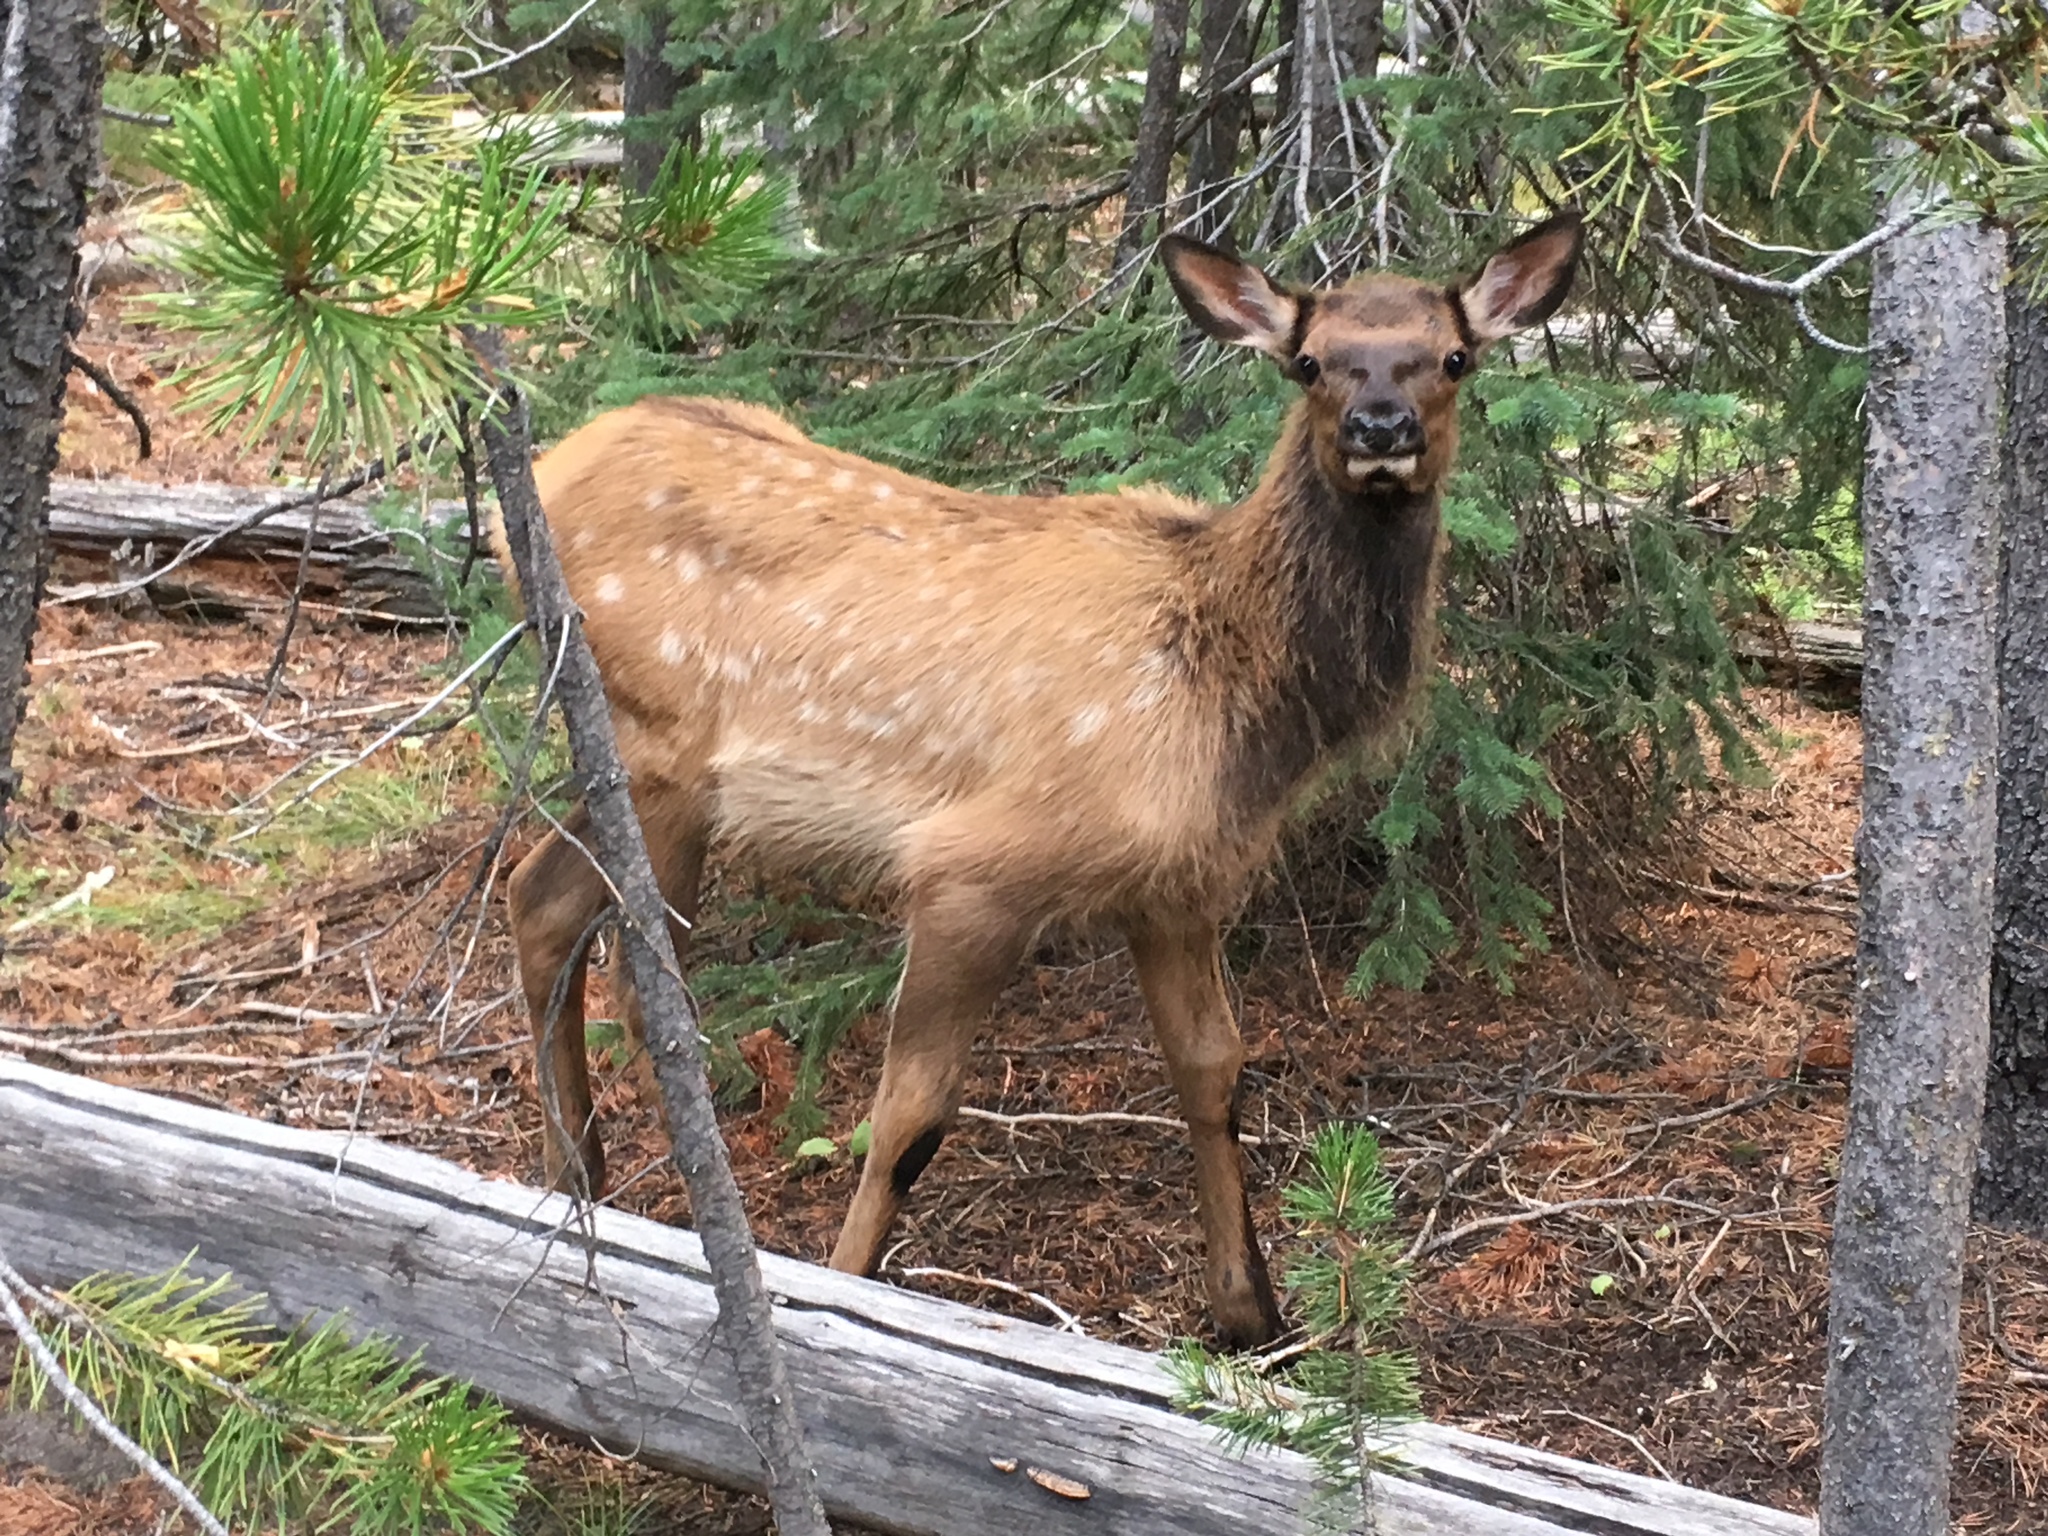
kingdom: Animalia
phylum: Chordata
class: Mammalia
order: Artiodactyla
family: Cervidae
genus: Cervus
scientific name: Cervus elaphus
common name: Red deer
